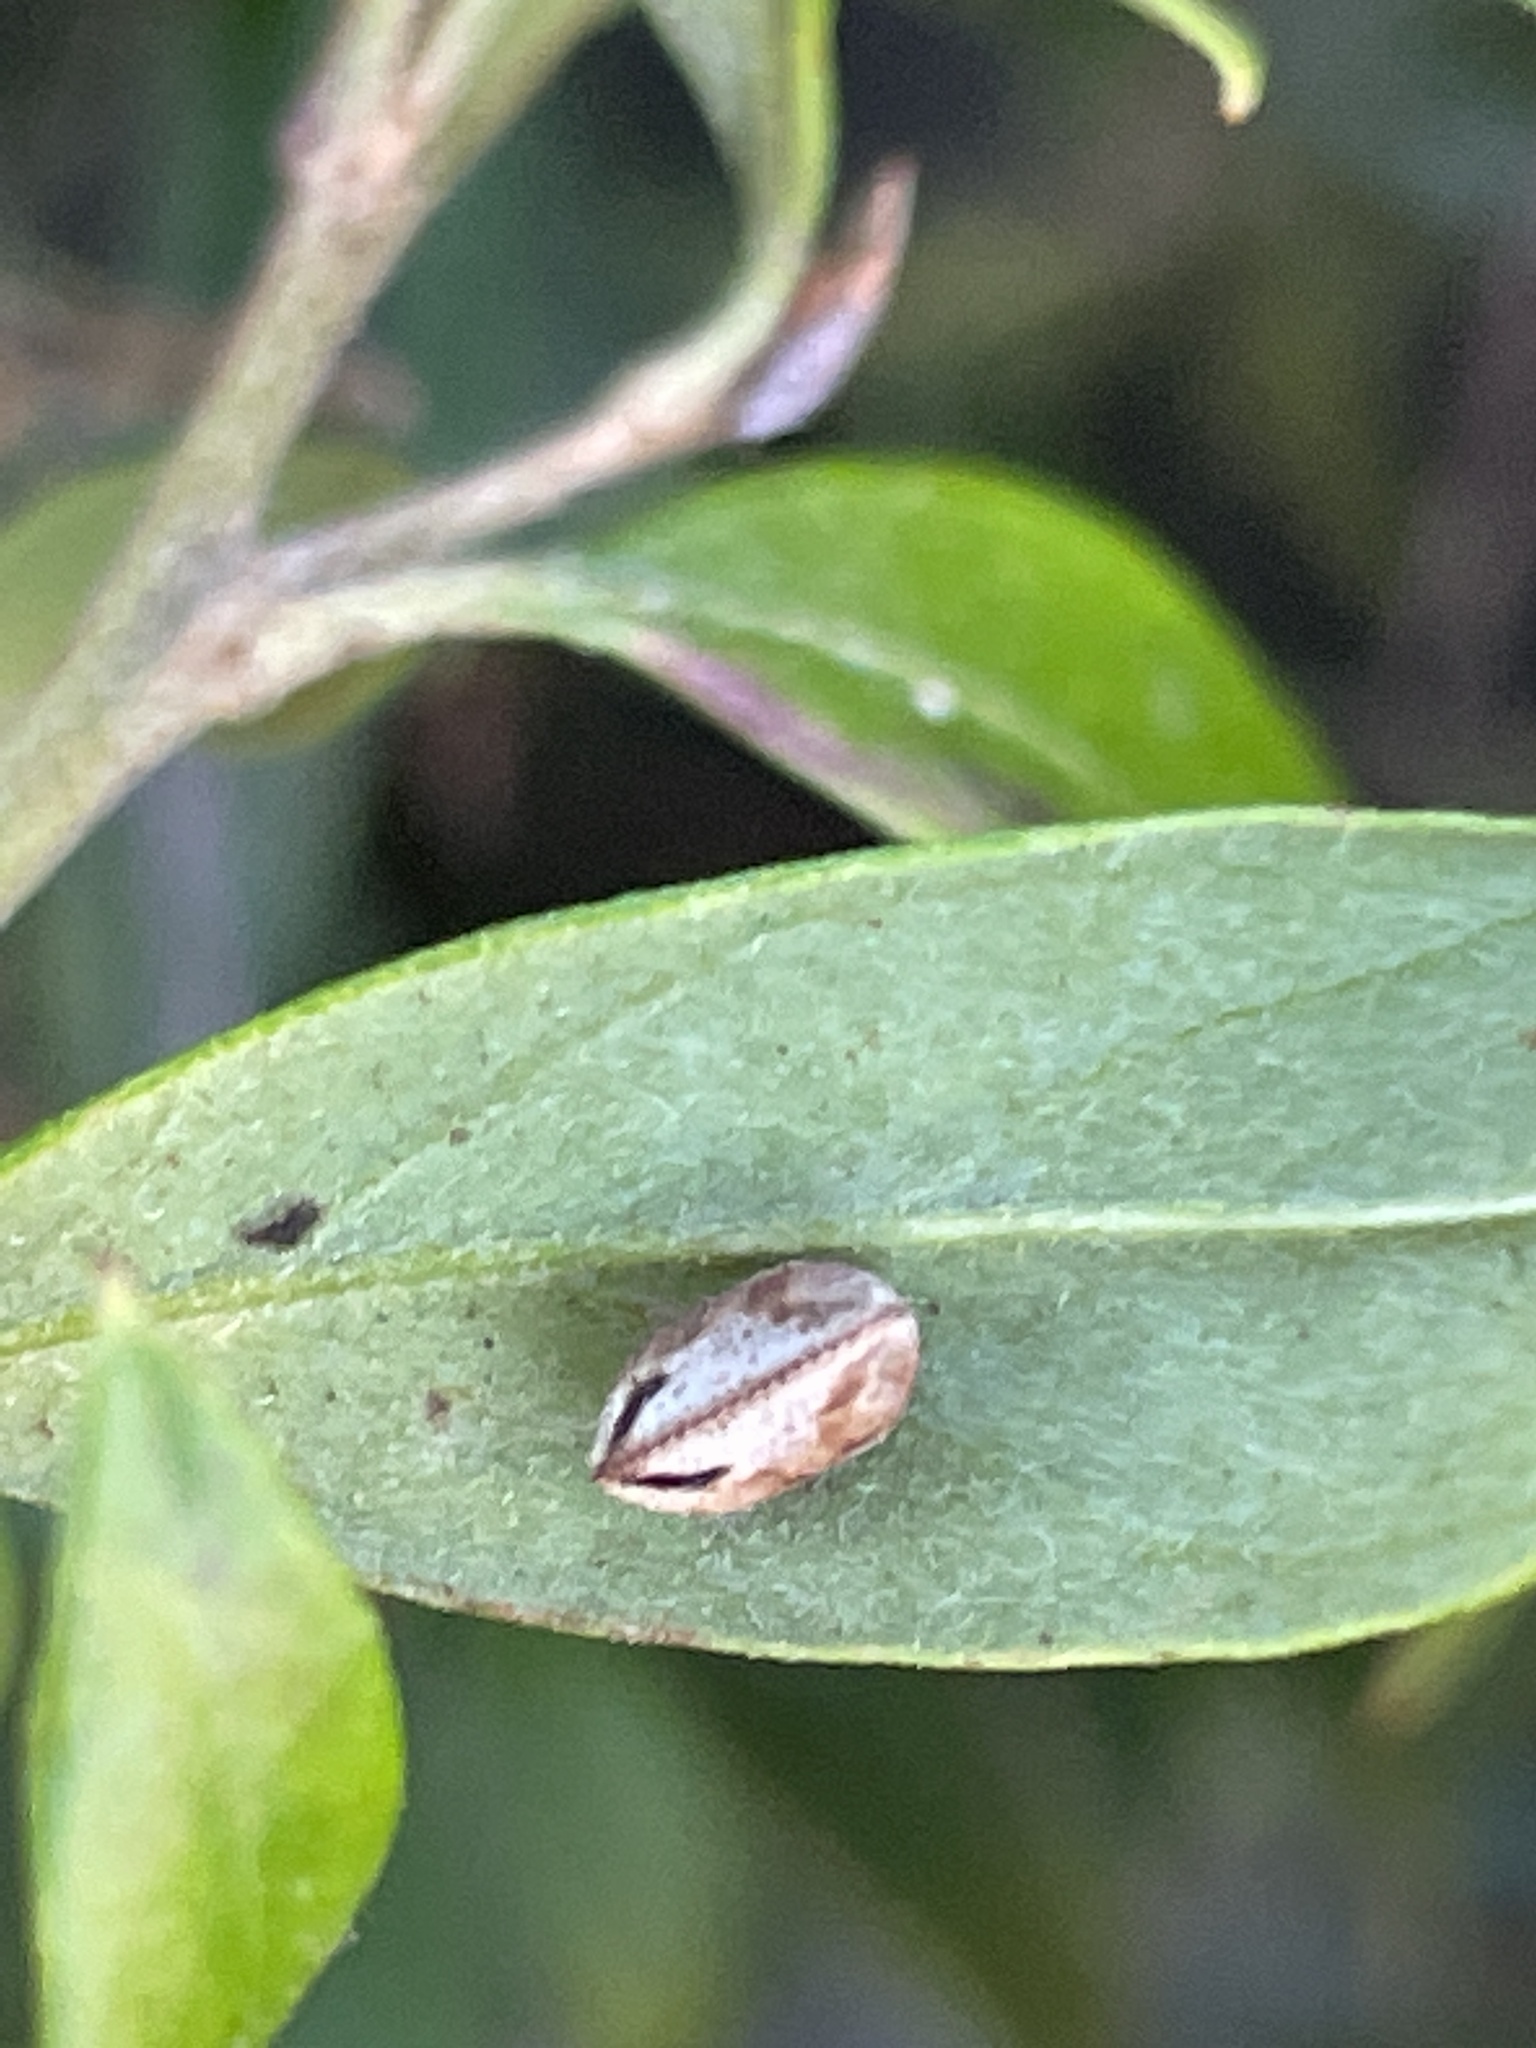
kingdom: Animalia
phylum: Arthropoda
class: Insecta
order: Blattodea
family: Ectobiidae
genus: Balta
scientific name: Balta bicolor
